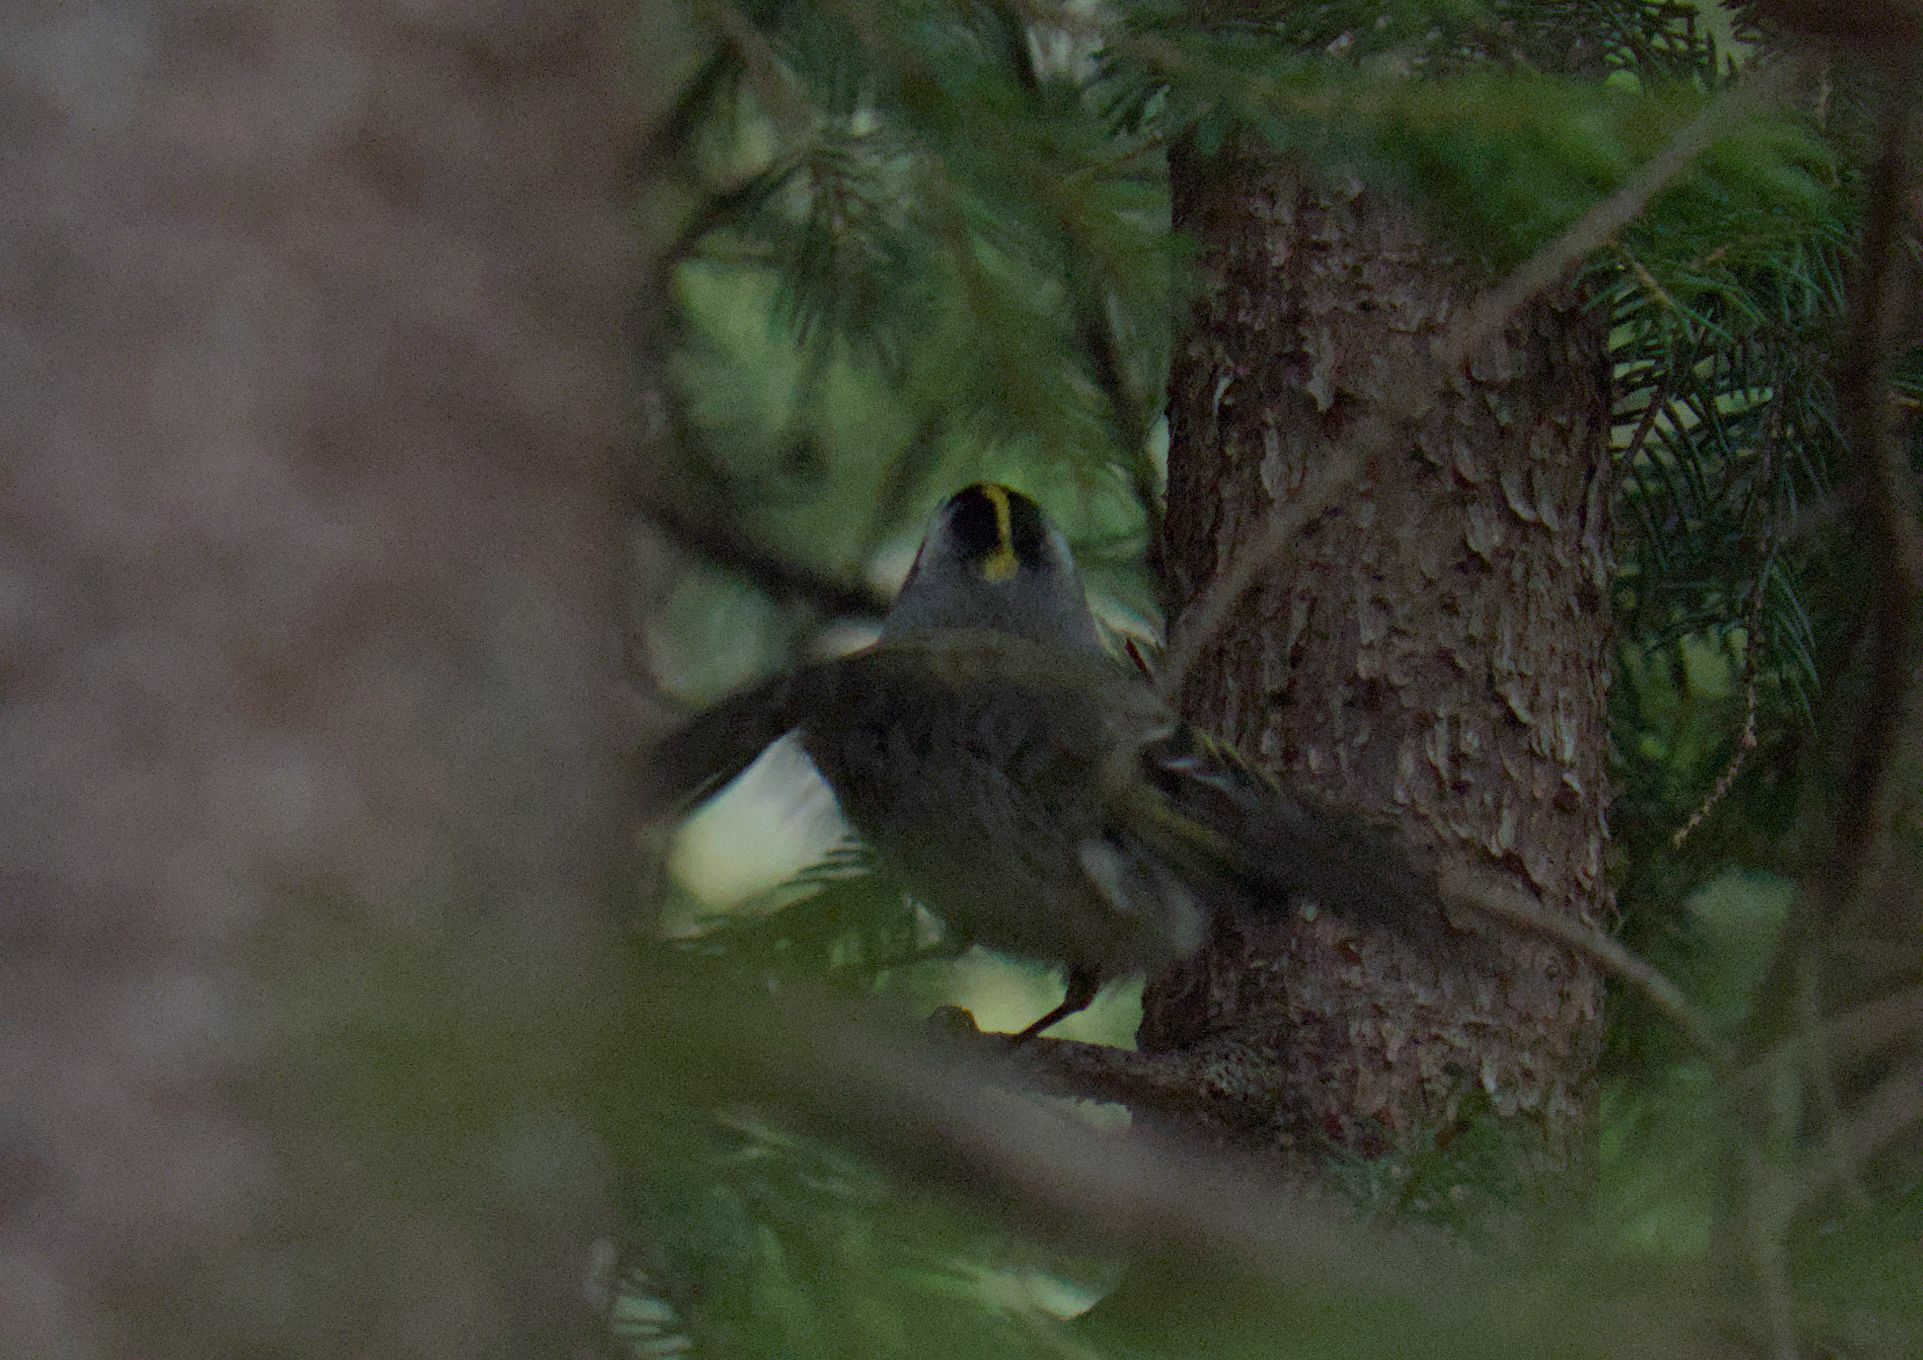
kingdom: Animalia
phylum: Chordata
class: Aves
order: Passeriformes
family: Regulidae
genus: Regulus
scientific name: Regulus satrapa
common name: Golden-crowned kinglet
